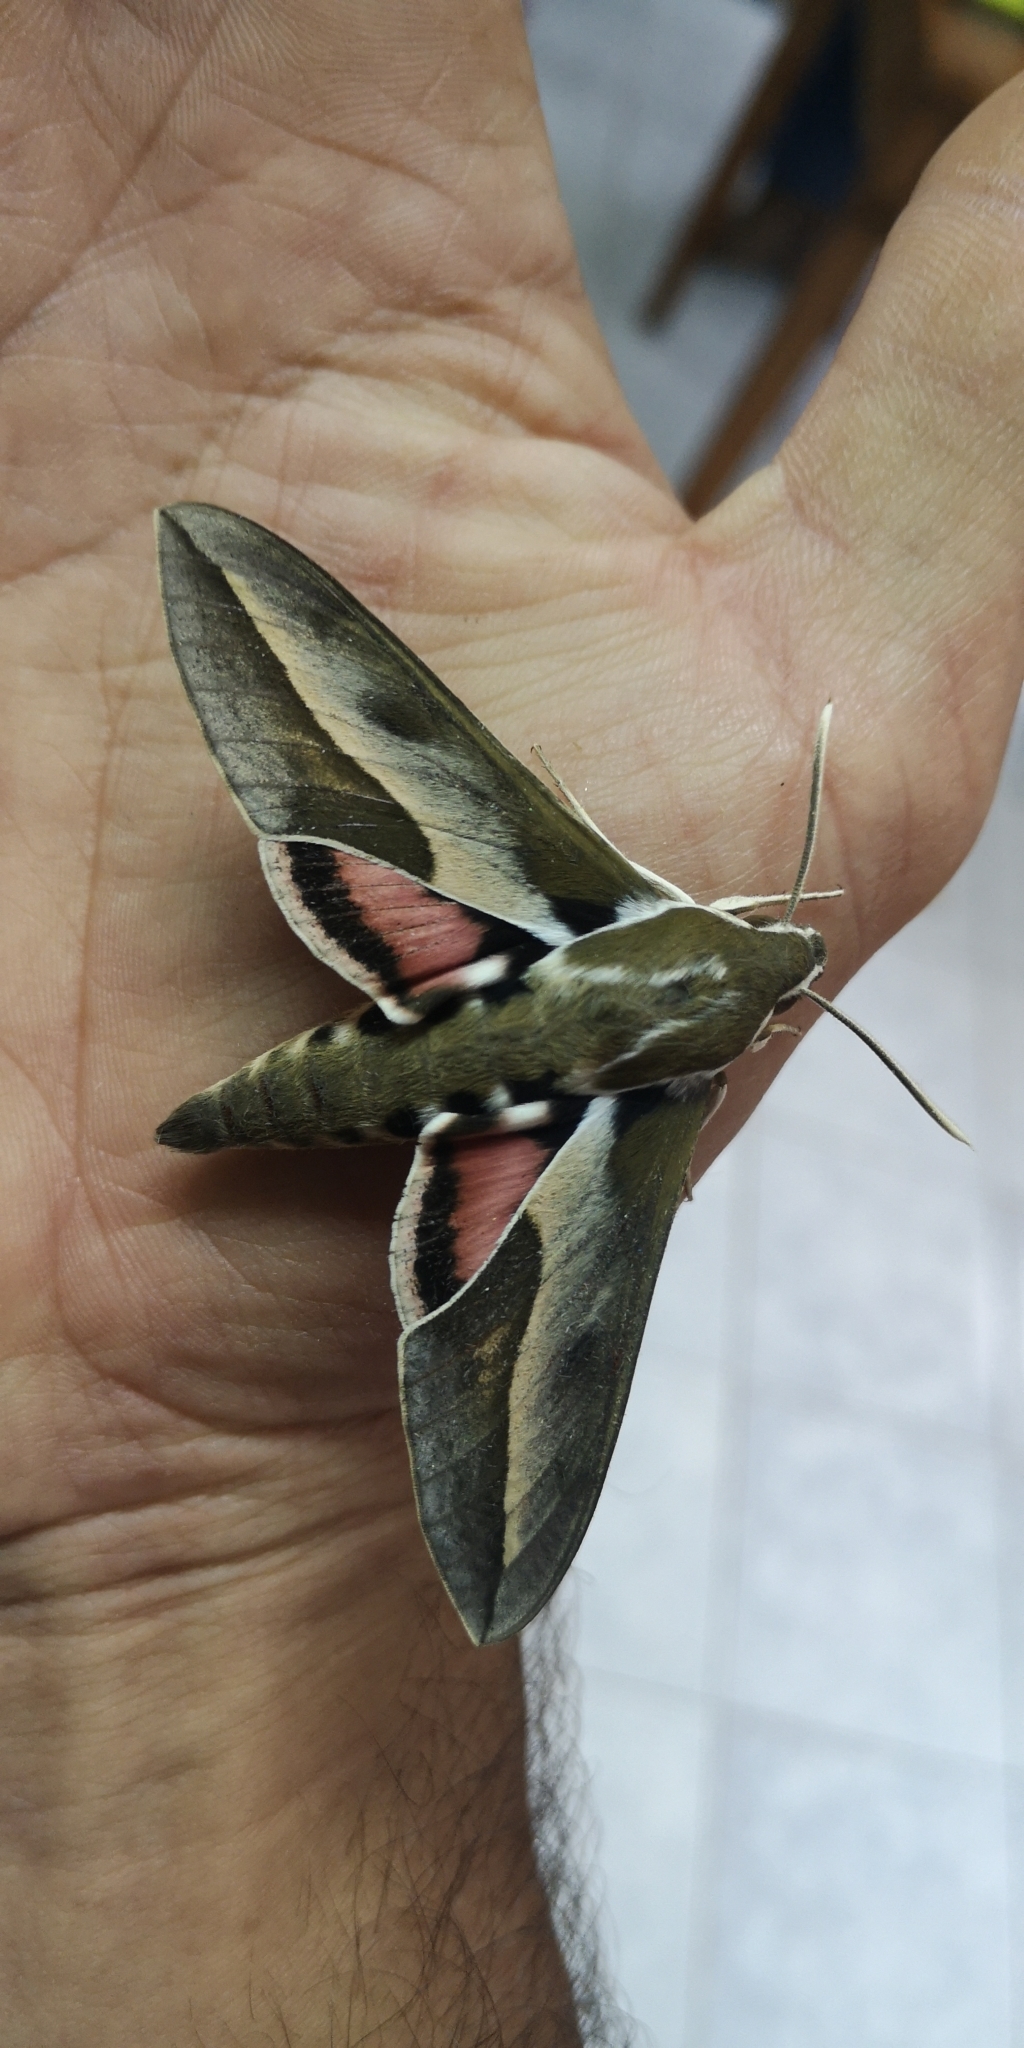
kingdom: Animalia
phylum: Arthropoda
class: Insecta
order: Lepidoptera
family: Sphingidae
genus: Hyles
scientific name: Hyles annei
